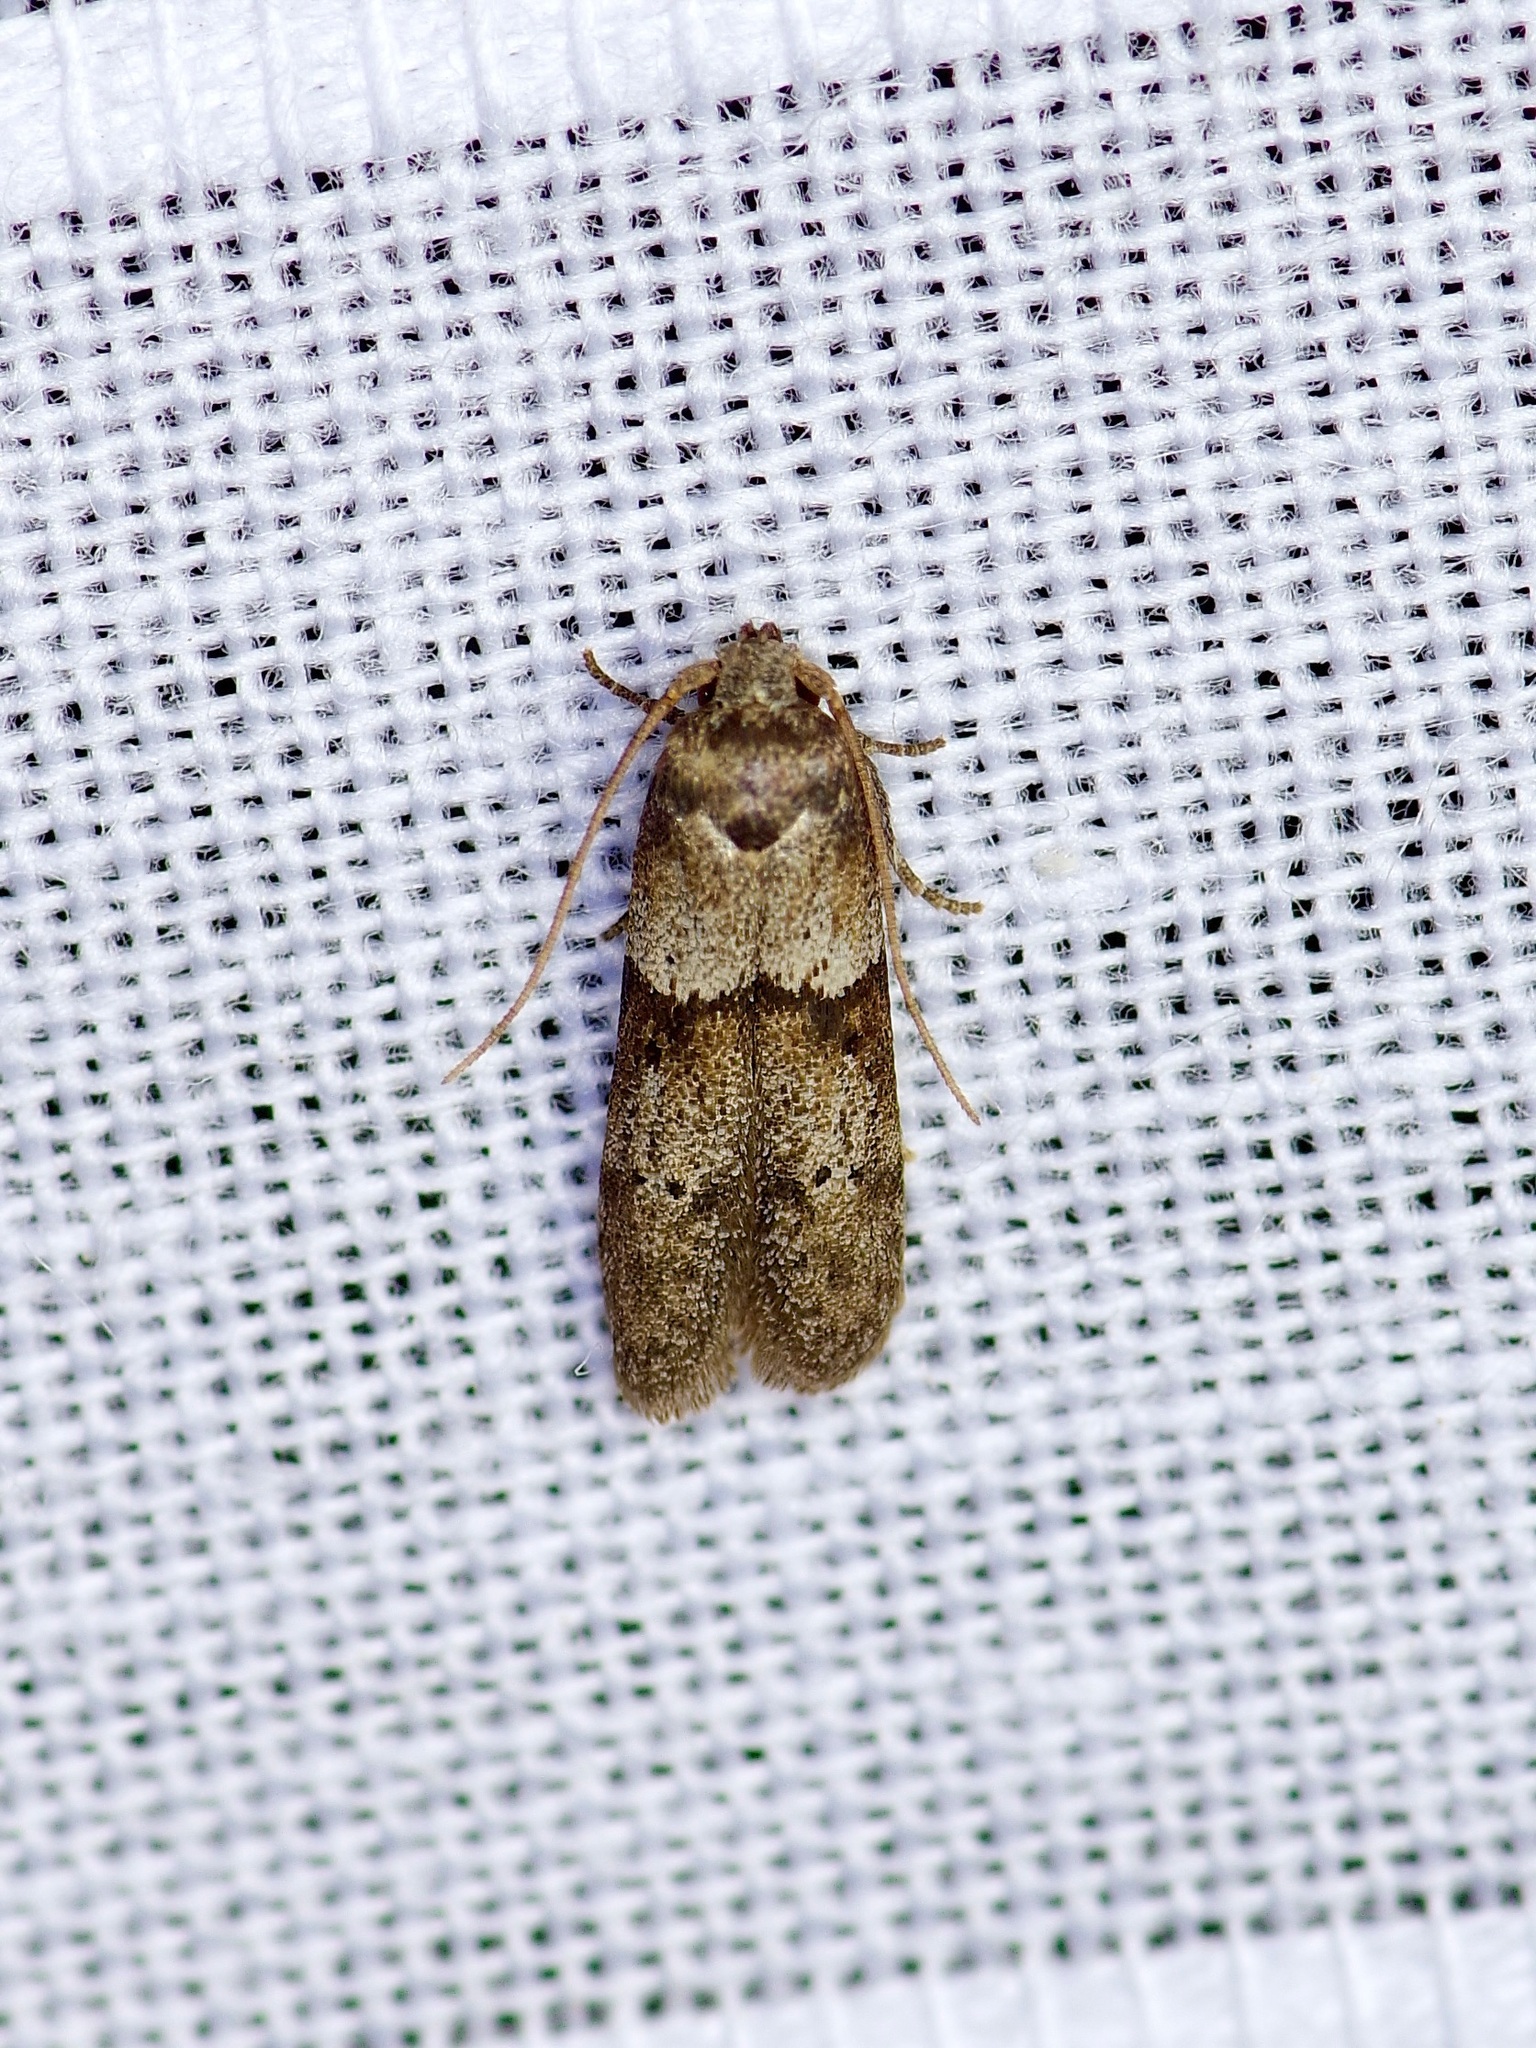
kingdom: Animalia
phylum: Arthropoda
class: Insecta
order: Lepidoptera
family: Blastobasidae
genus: Blastobasis
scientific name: Blastobasis glandulella
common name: Acorn moth
